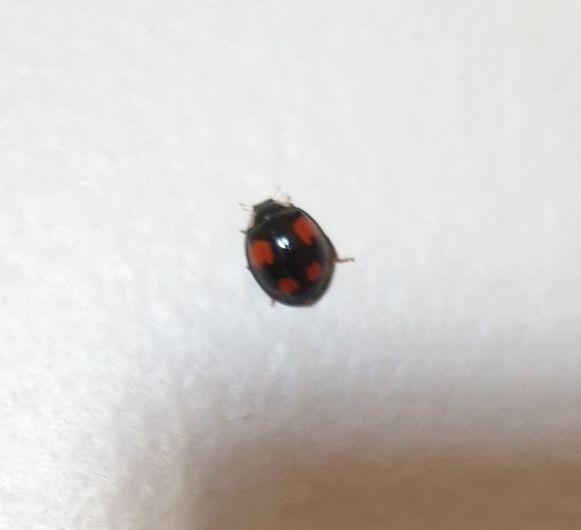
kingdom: Animalia
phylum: Arthropoda
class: Insecta
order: Coleoptera
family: Coccinellidae
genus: Harmonia
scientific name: Harmonia axyridis
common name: Harlequin ladybird
